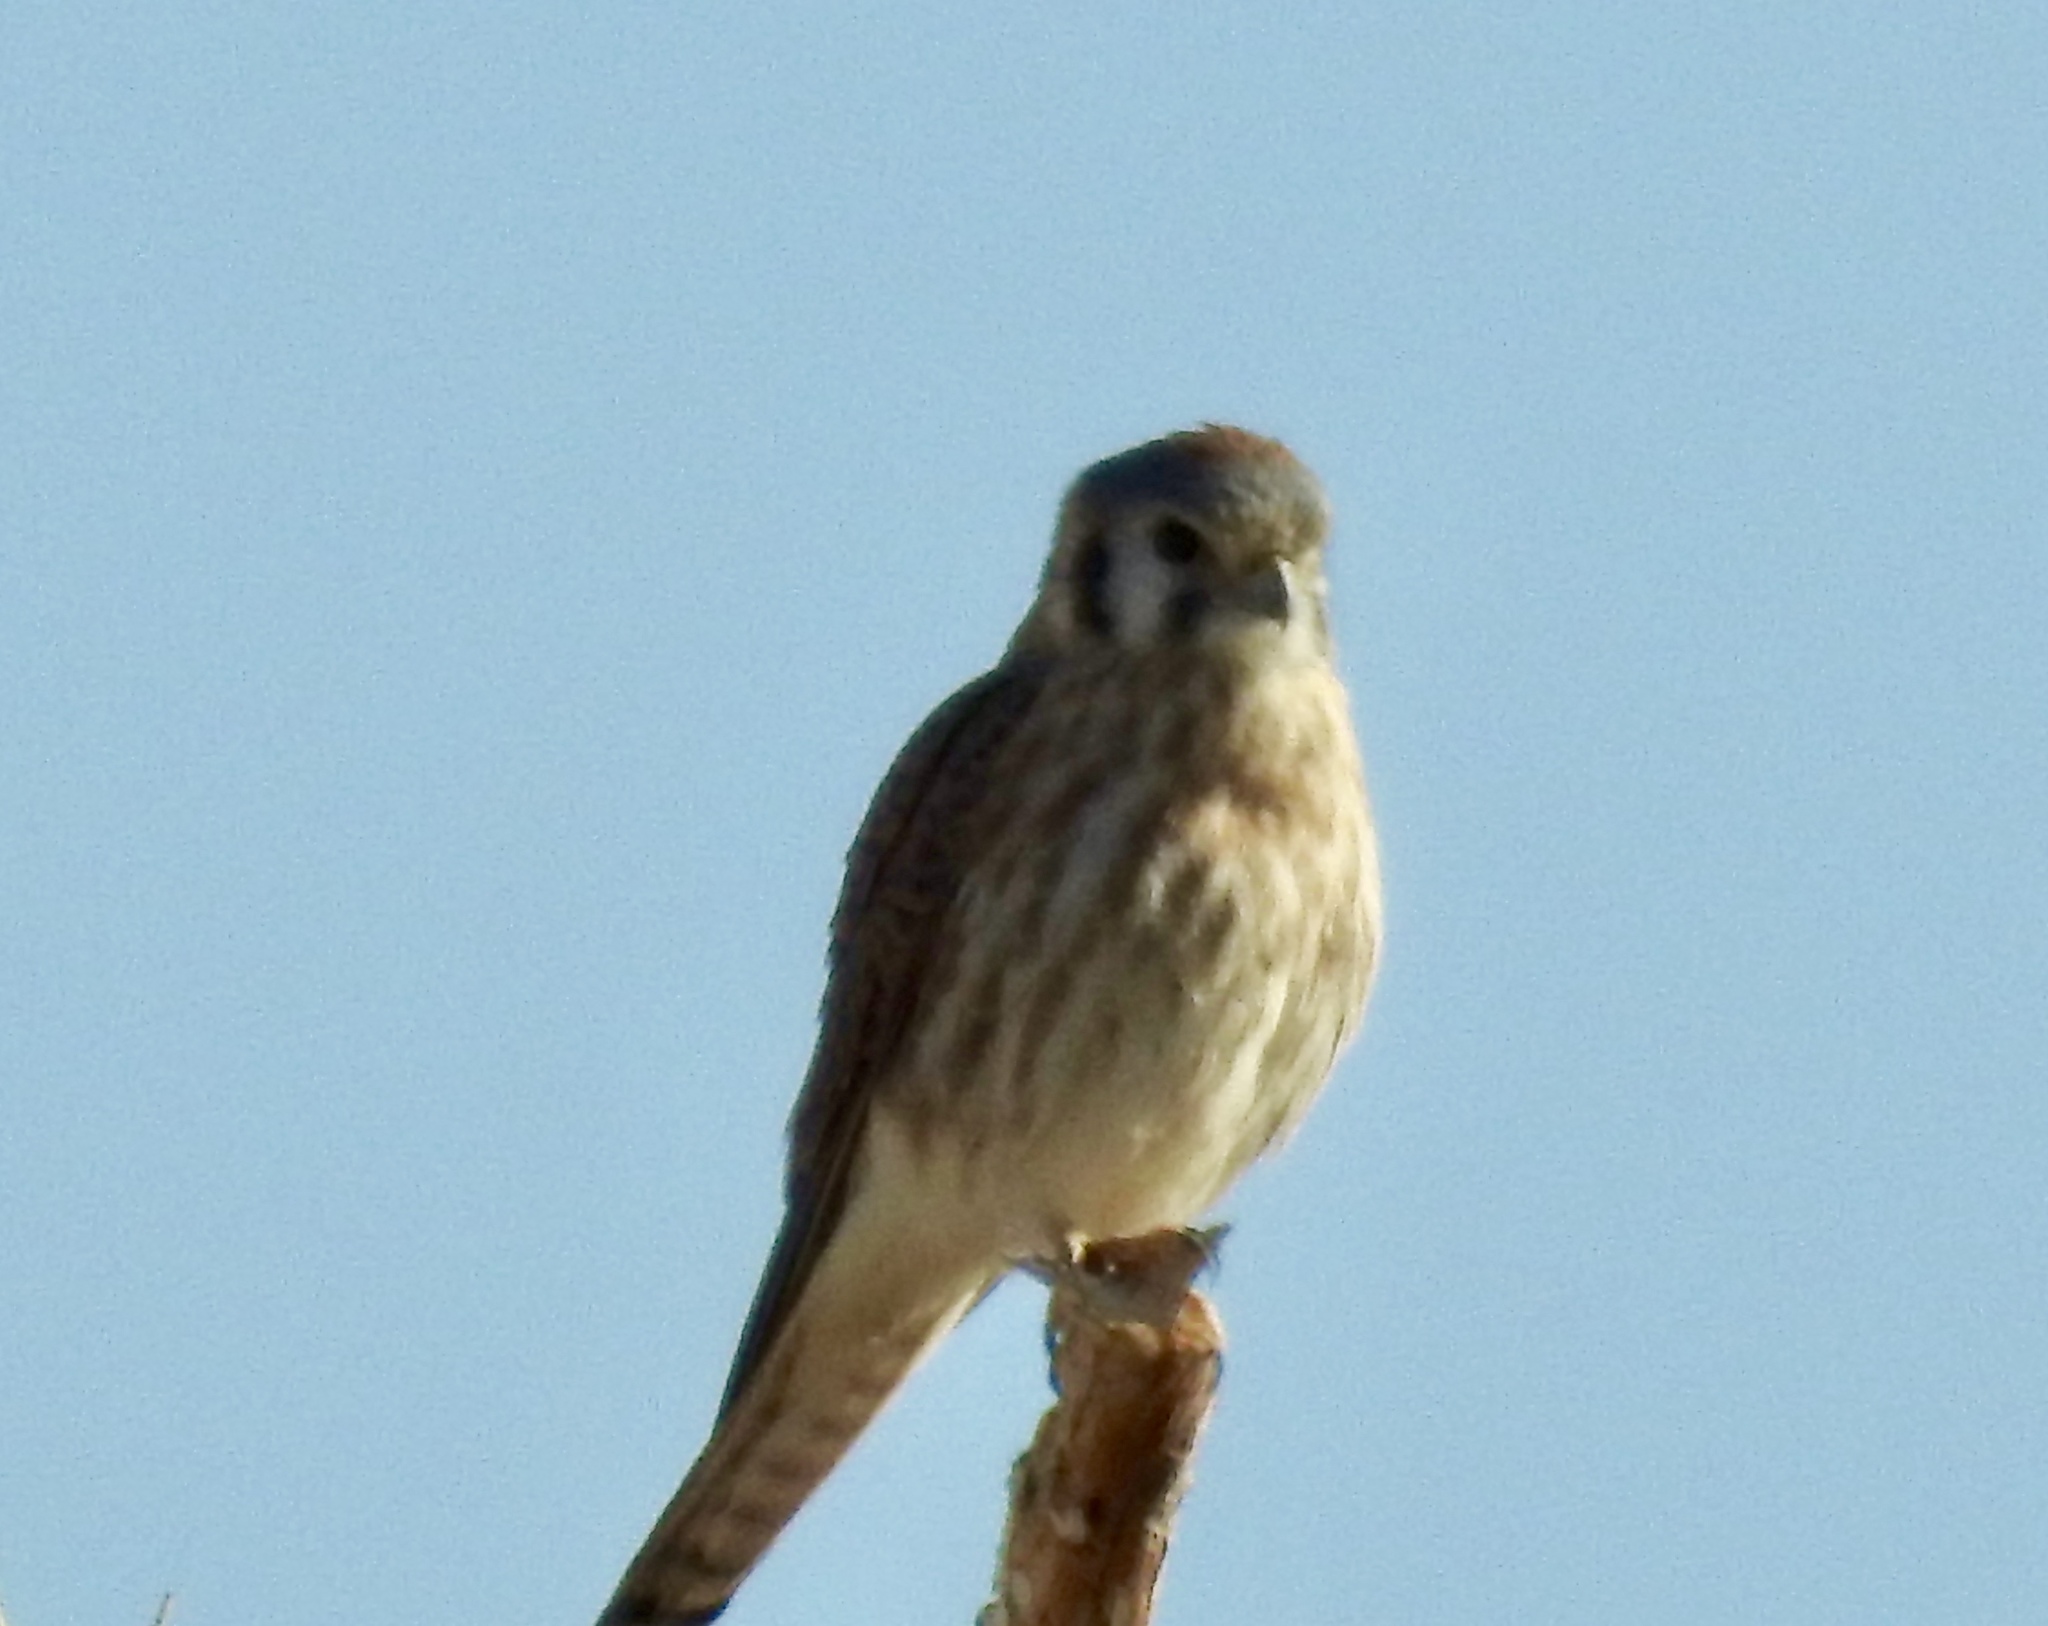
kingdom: Animalia
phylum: Chordata
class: Aves
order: Falconiformes
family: Falconidae
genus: Falco
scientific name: Falco sparverius
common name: American kestrel
